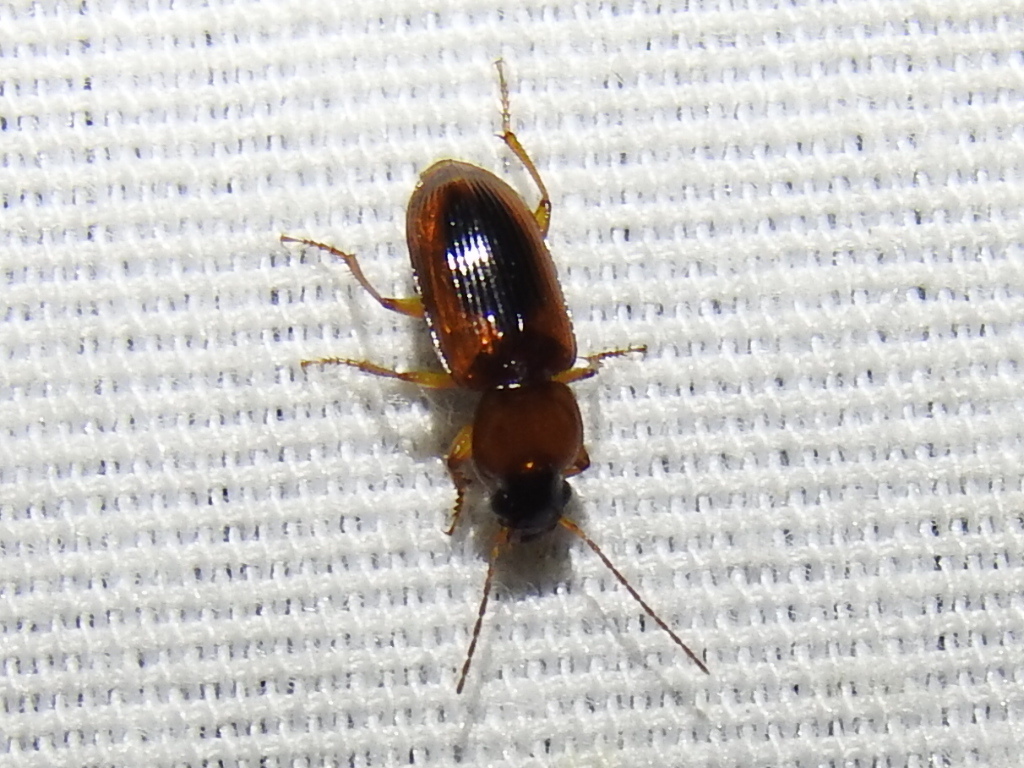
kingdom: Animalia
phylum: Arthropoda
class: Insecta
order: Coleoptera
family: Carabidae
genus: Stenolophus
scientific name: Stenolophus dissimilis
